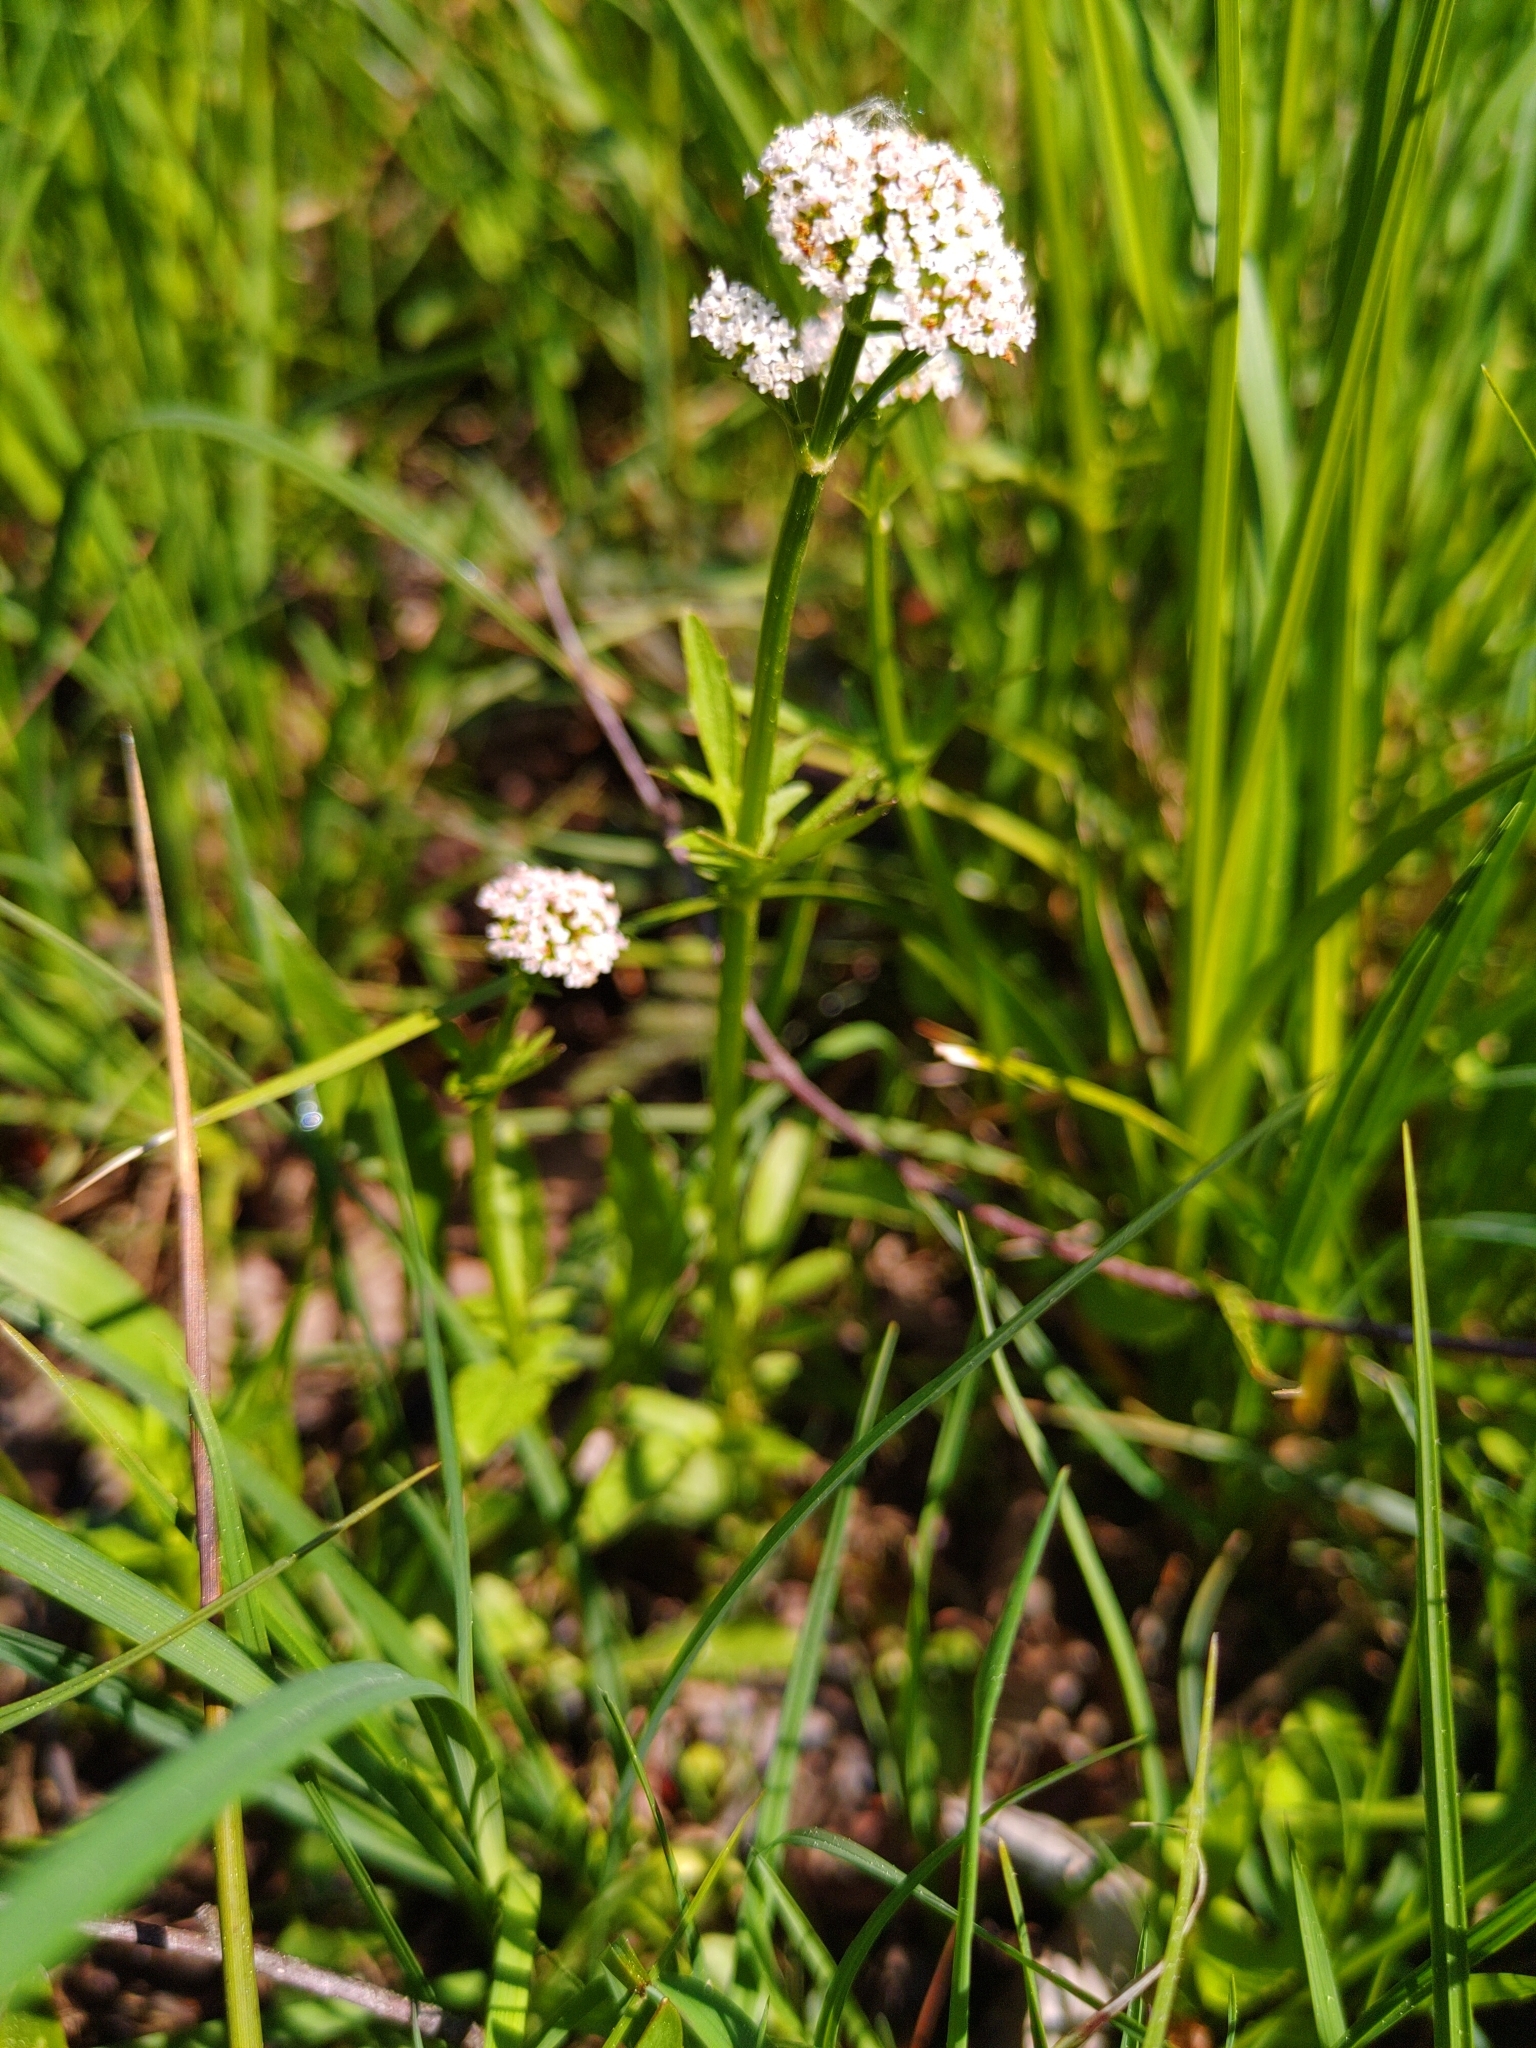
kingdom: Plantae
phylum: Tracheophyta
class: Magnoliopsida
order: Dipsacales
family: Caprifoliaceae
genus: Valeriana
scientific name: Valeriana dioica
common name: Marsh valerian
